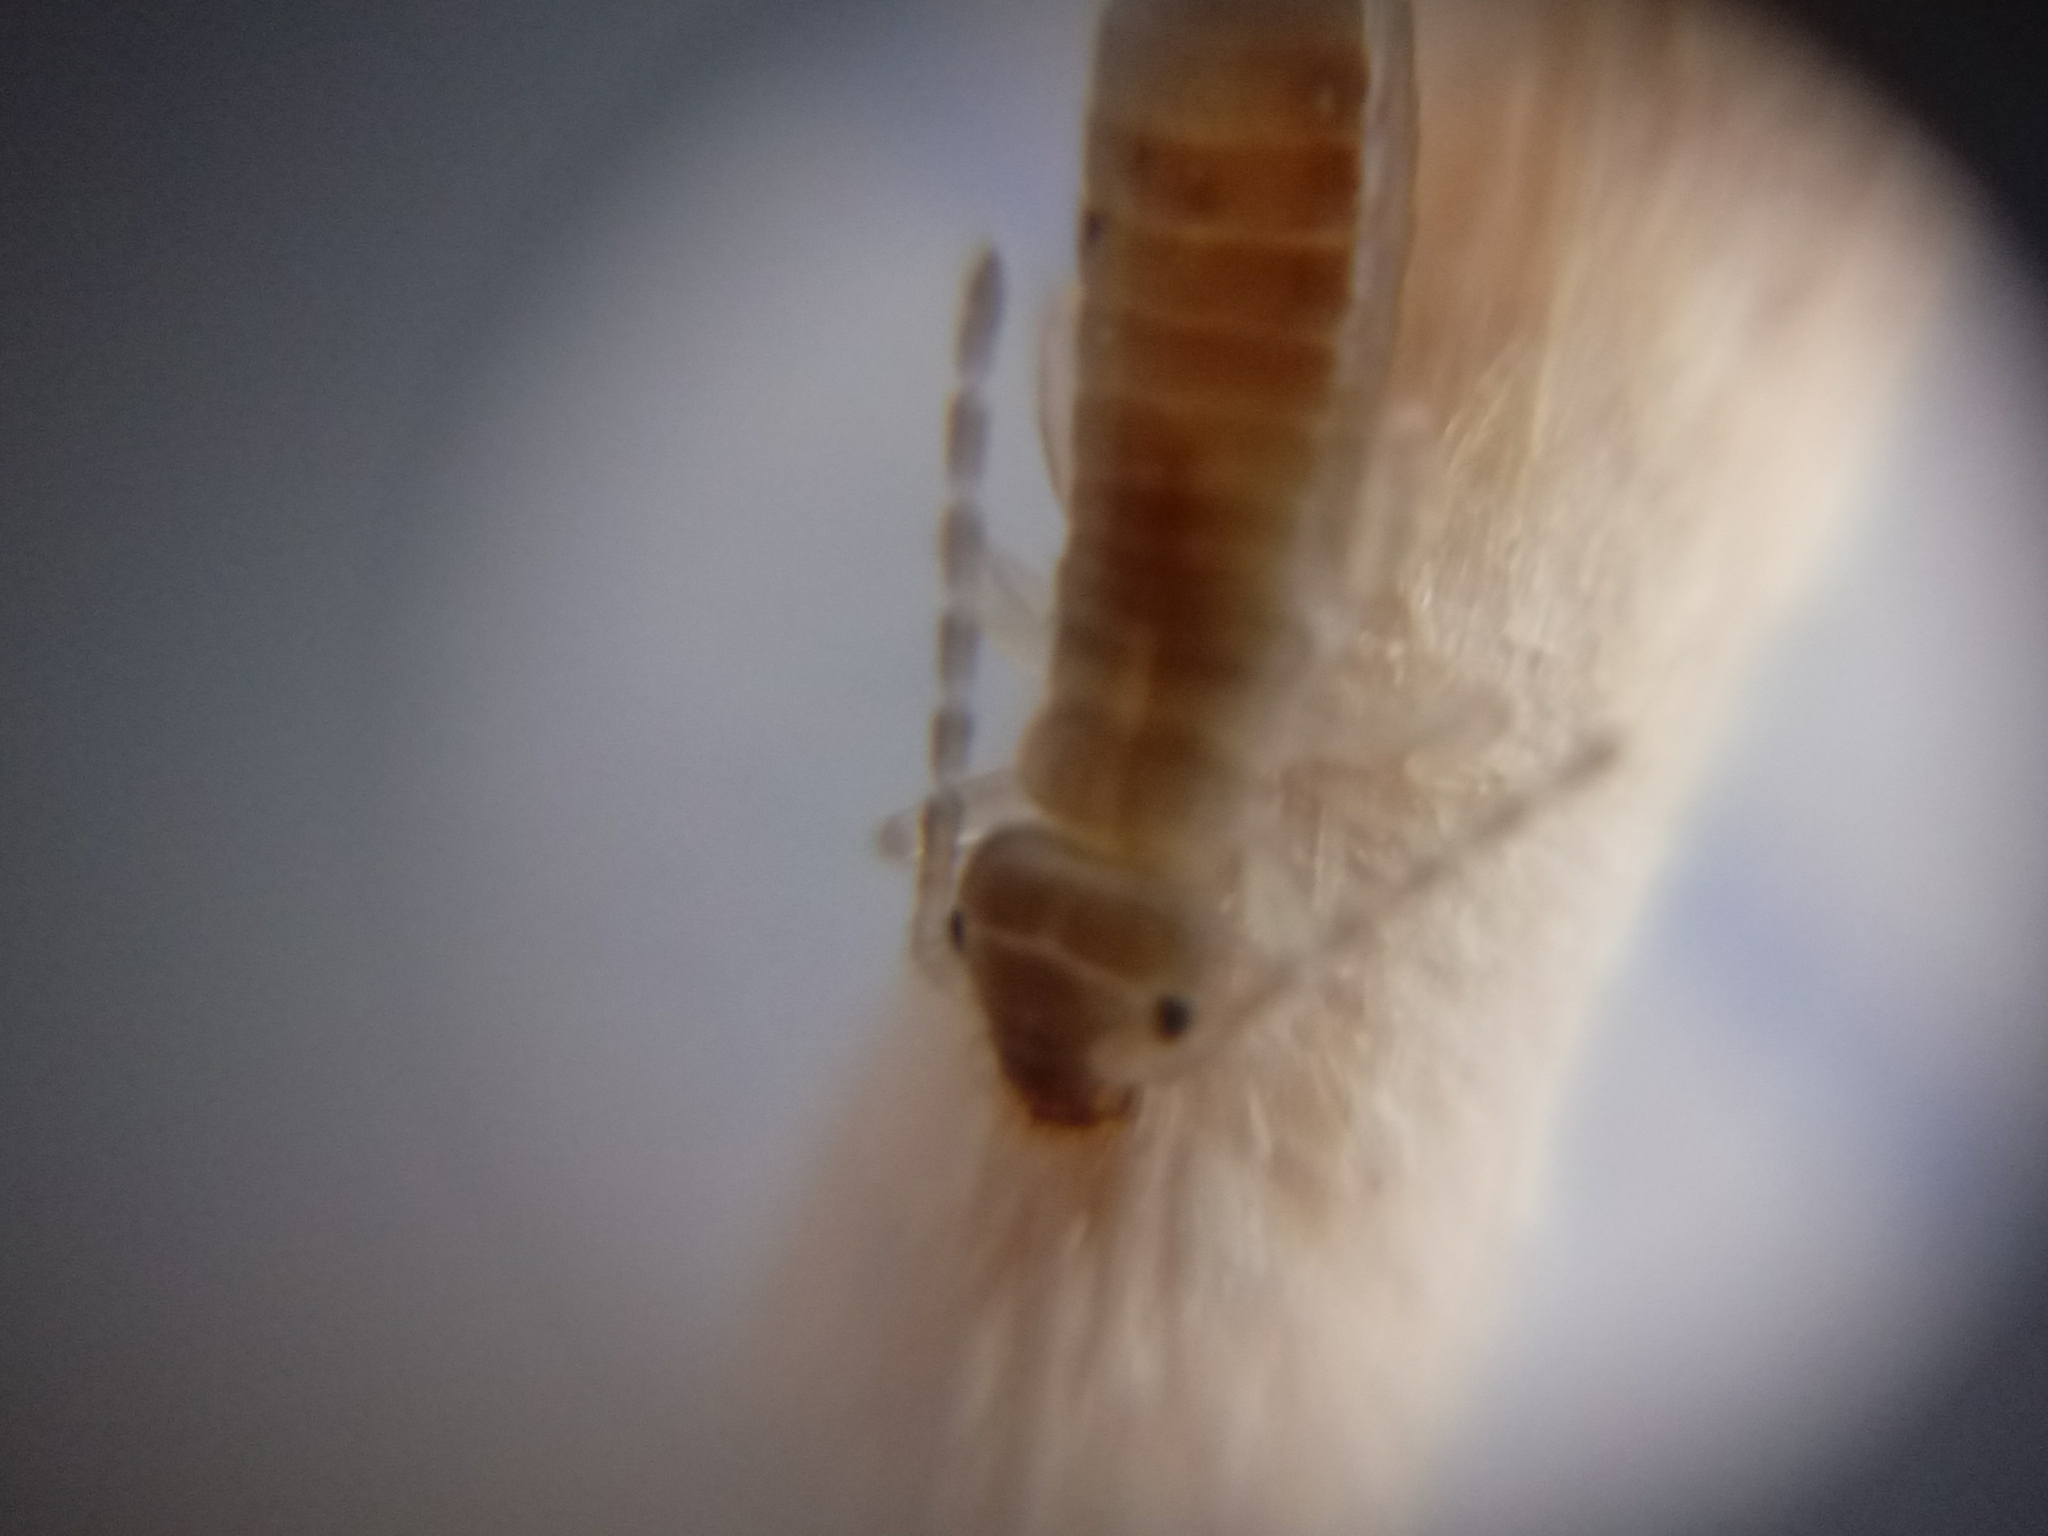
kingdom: Animalia
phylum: Arthropoda
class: Insecta
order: Dermaptera
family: Forficulidae
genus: Forficula
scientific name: Forficula dentata
